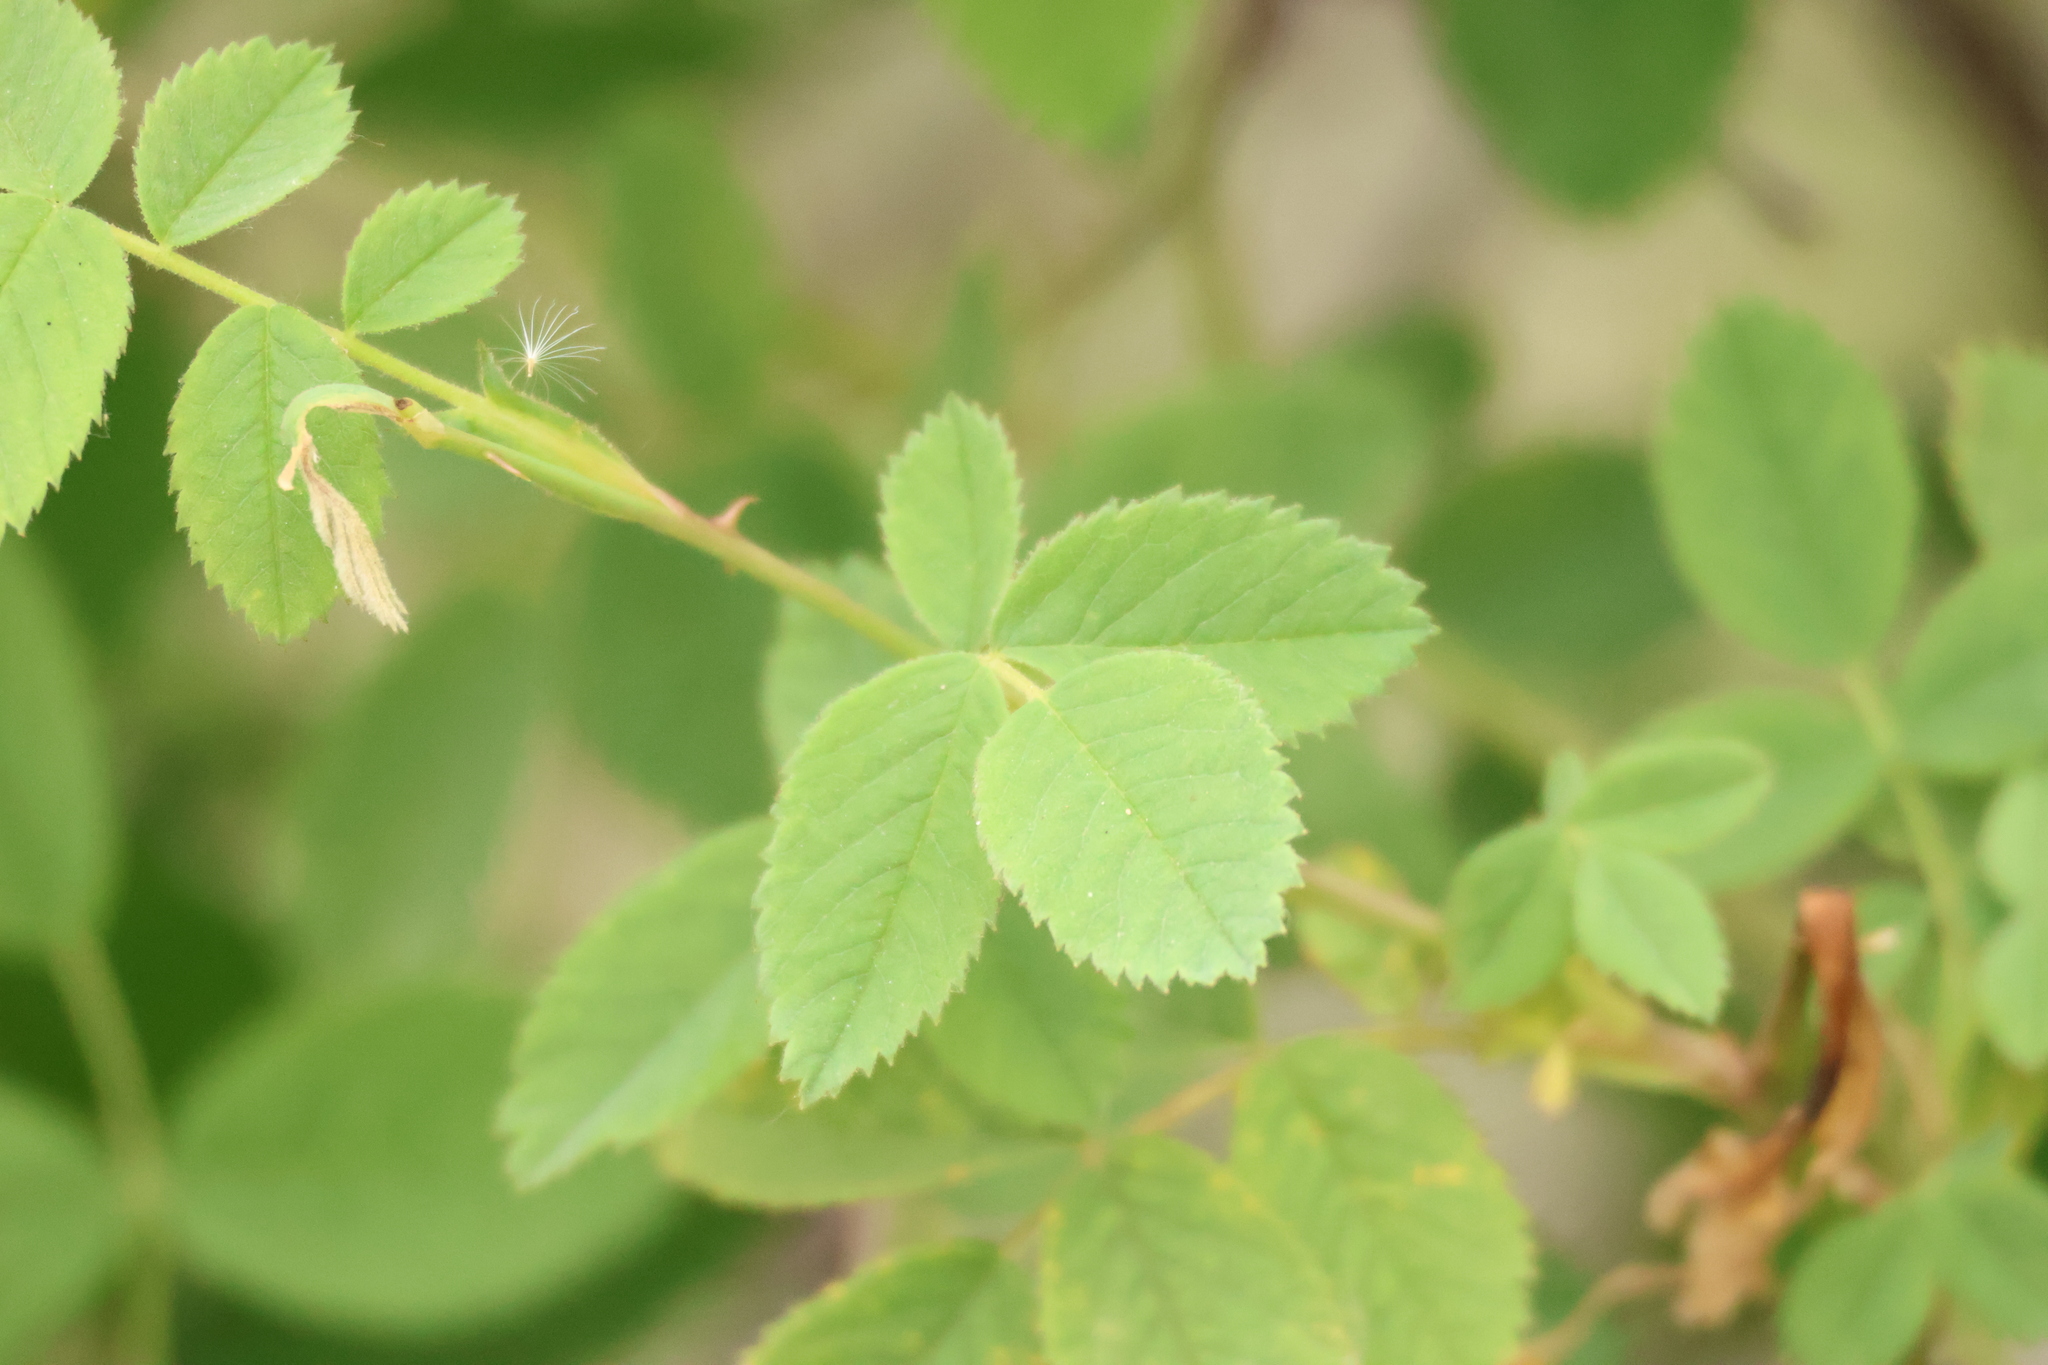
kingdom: Plantae
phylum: Tracheophyta
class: Magnoliopsida
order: Rosales
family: Rosaceae
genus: Rosa
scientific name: Rosa californica
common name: California rose
